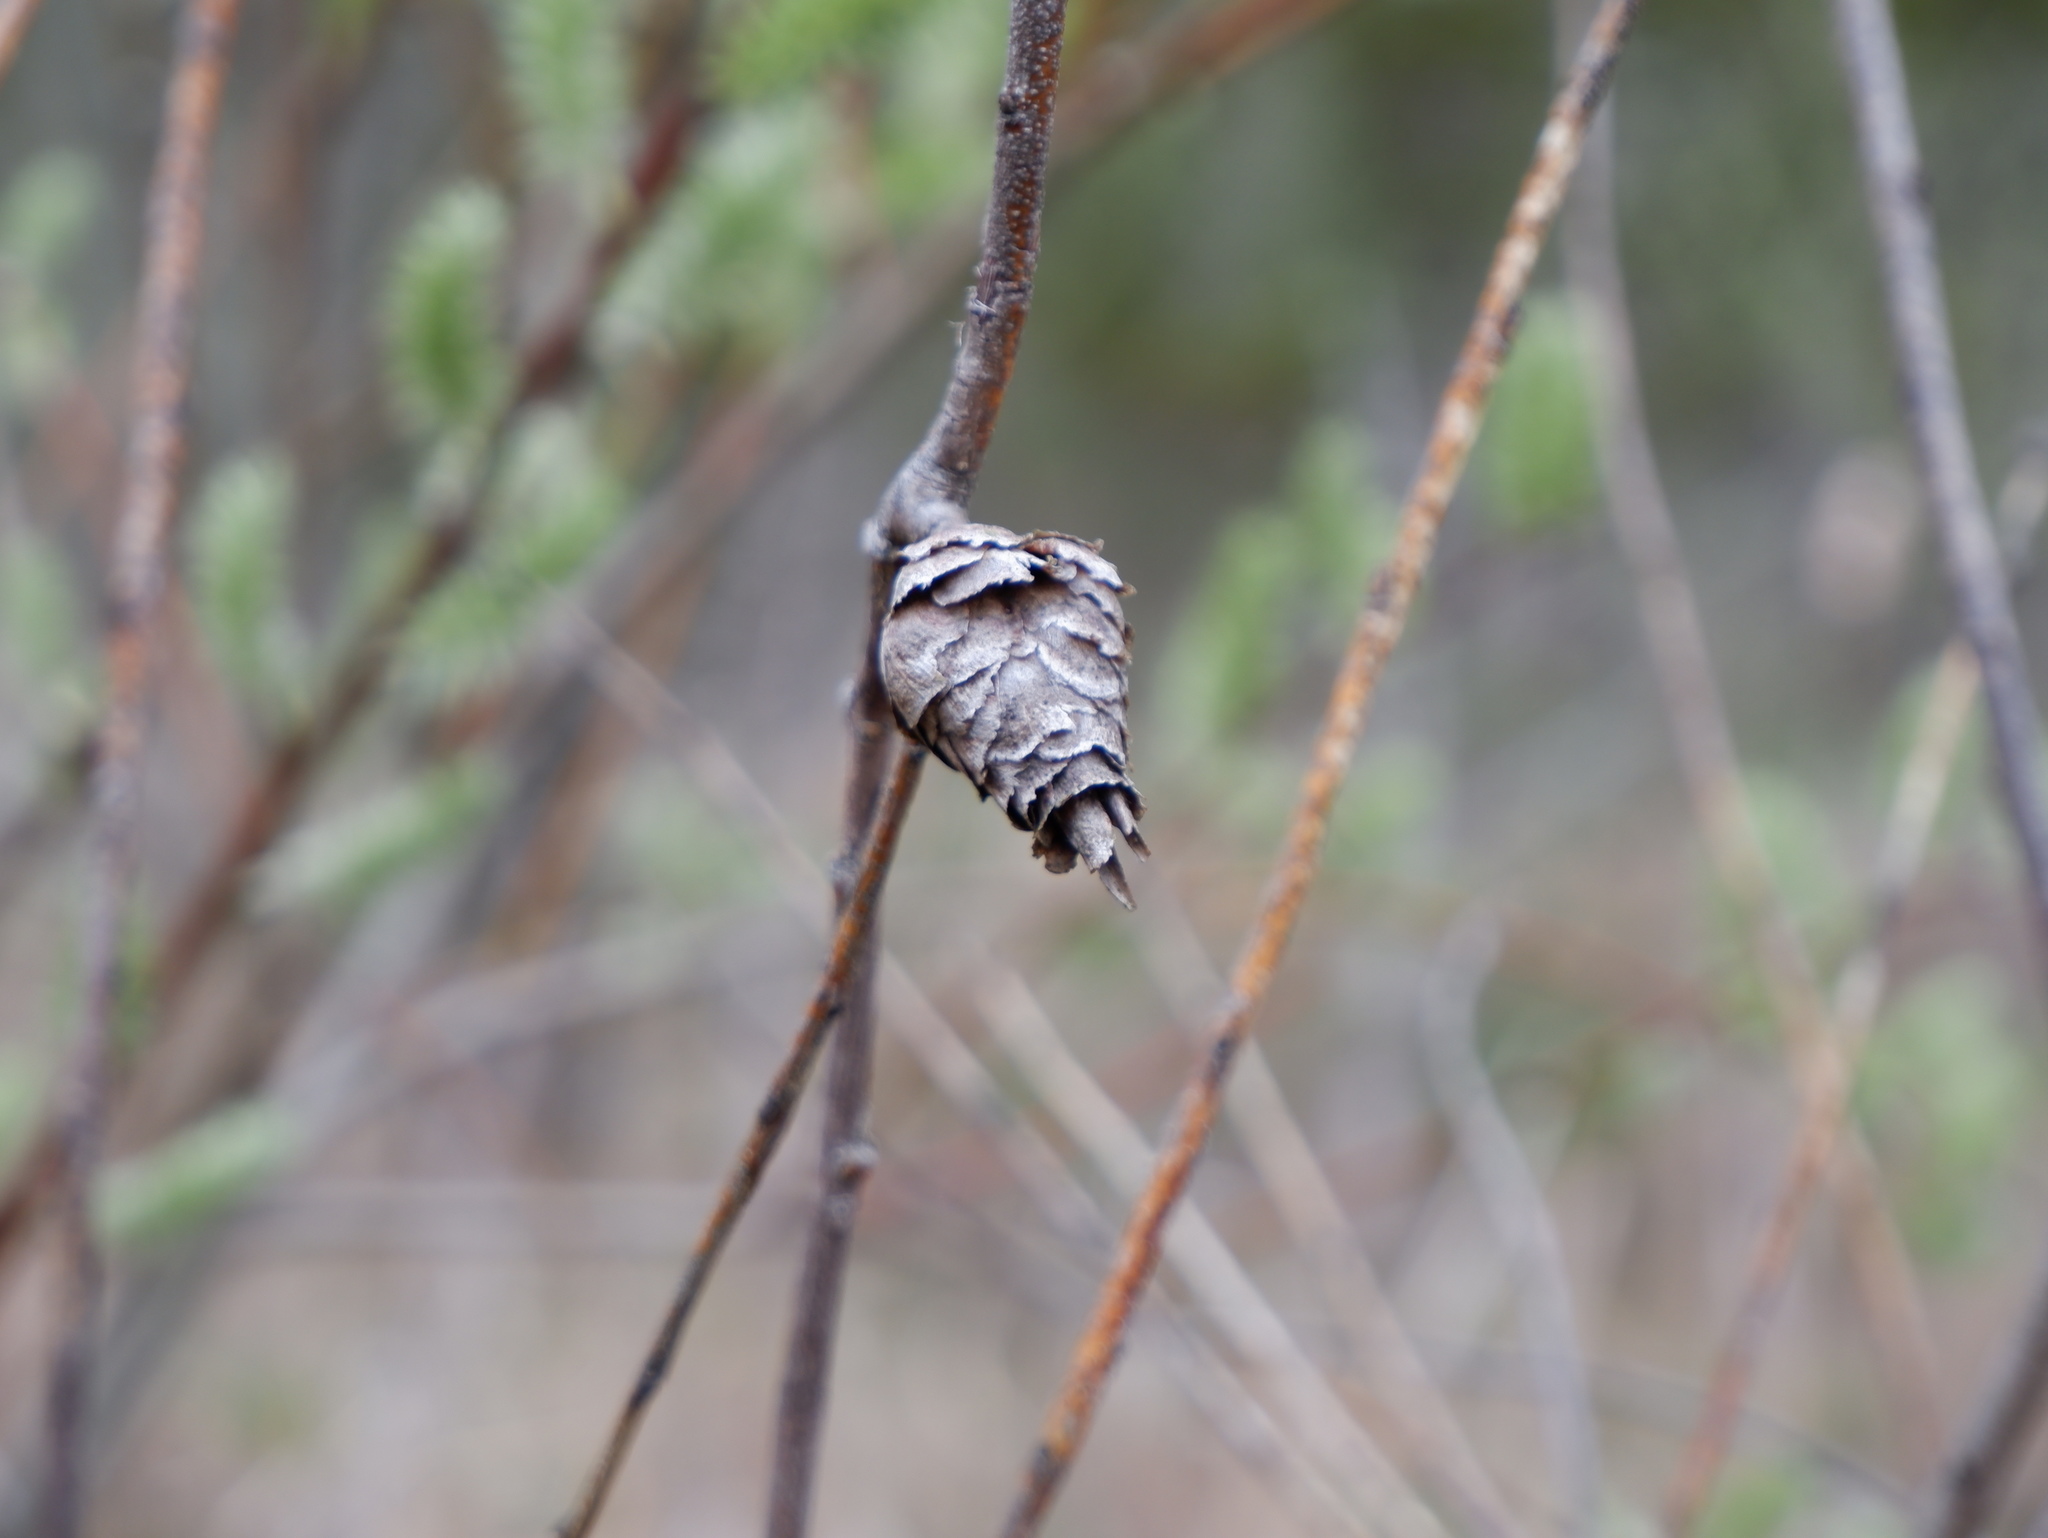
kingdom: Animalia
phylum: Arthropoda
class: Insecta
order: Diptera
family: Cecidomyiidae
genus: Rabdophaga
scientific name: Rabdophaga strobiloides
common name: Willow pinecone gall midge
